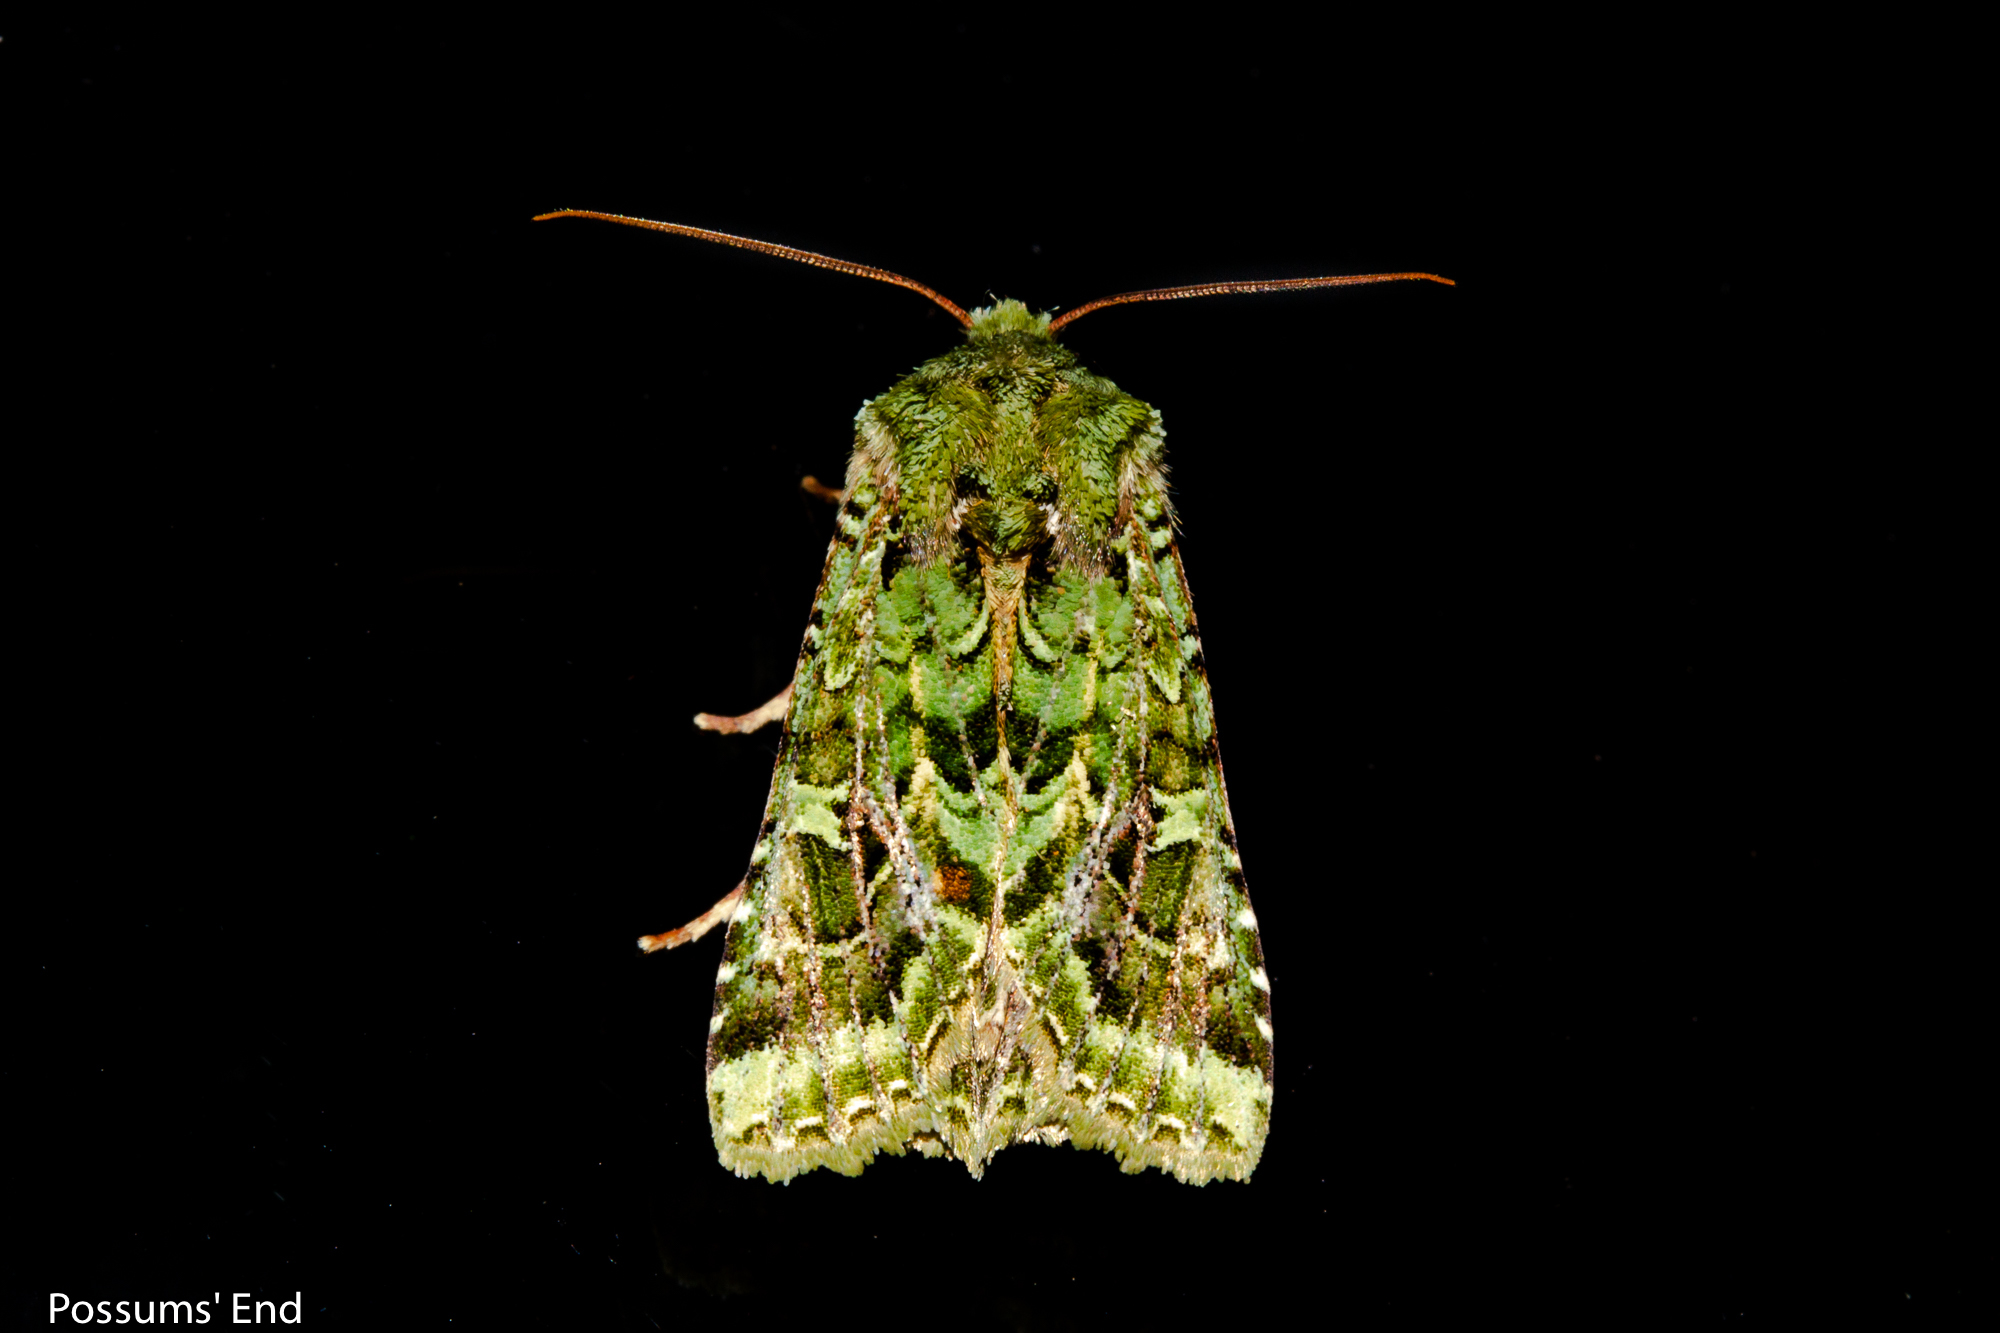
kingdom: Animalia
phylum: Arthropoda
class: Insecta
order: Lepidoptera
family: Noctuidae
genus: Feredayia
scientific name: Feredayia grammosa
